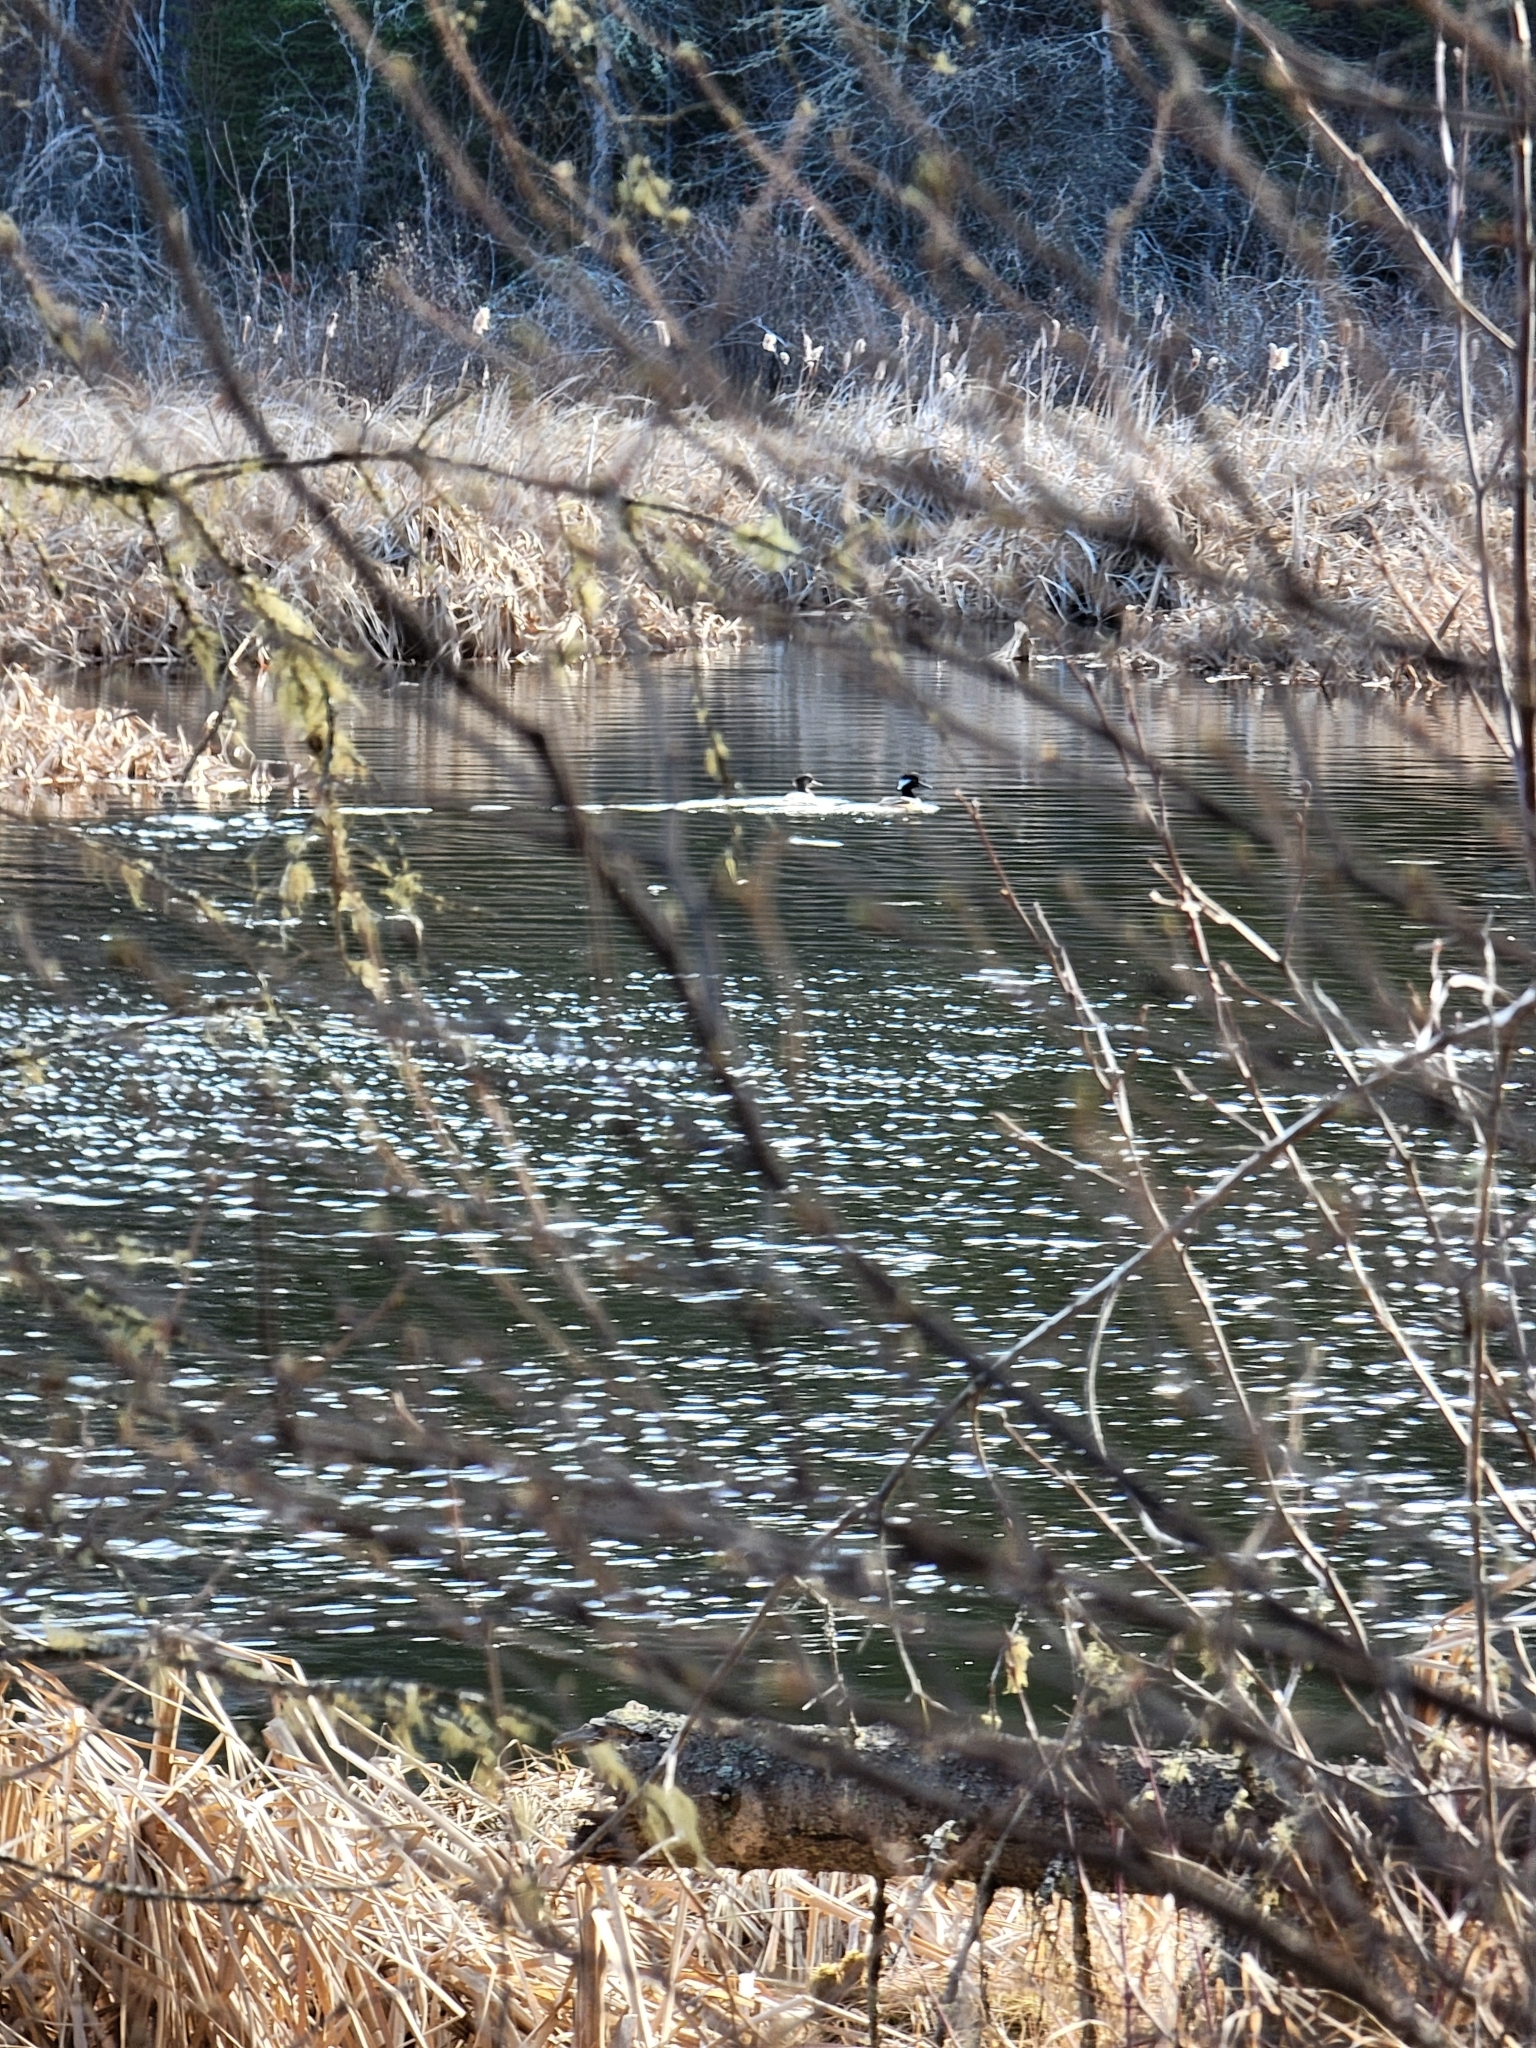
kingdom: Animalia
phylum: Chordata
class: Aves
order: Anseriformes
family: Anatidae
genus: Lophodytes
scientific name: Lophodytes cucullatus
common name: Hooded merganser
